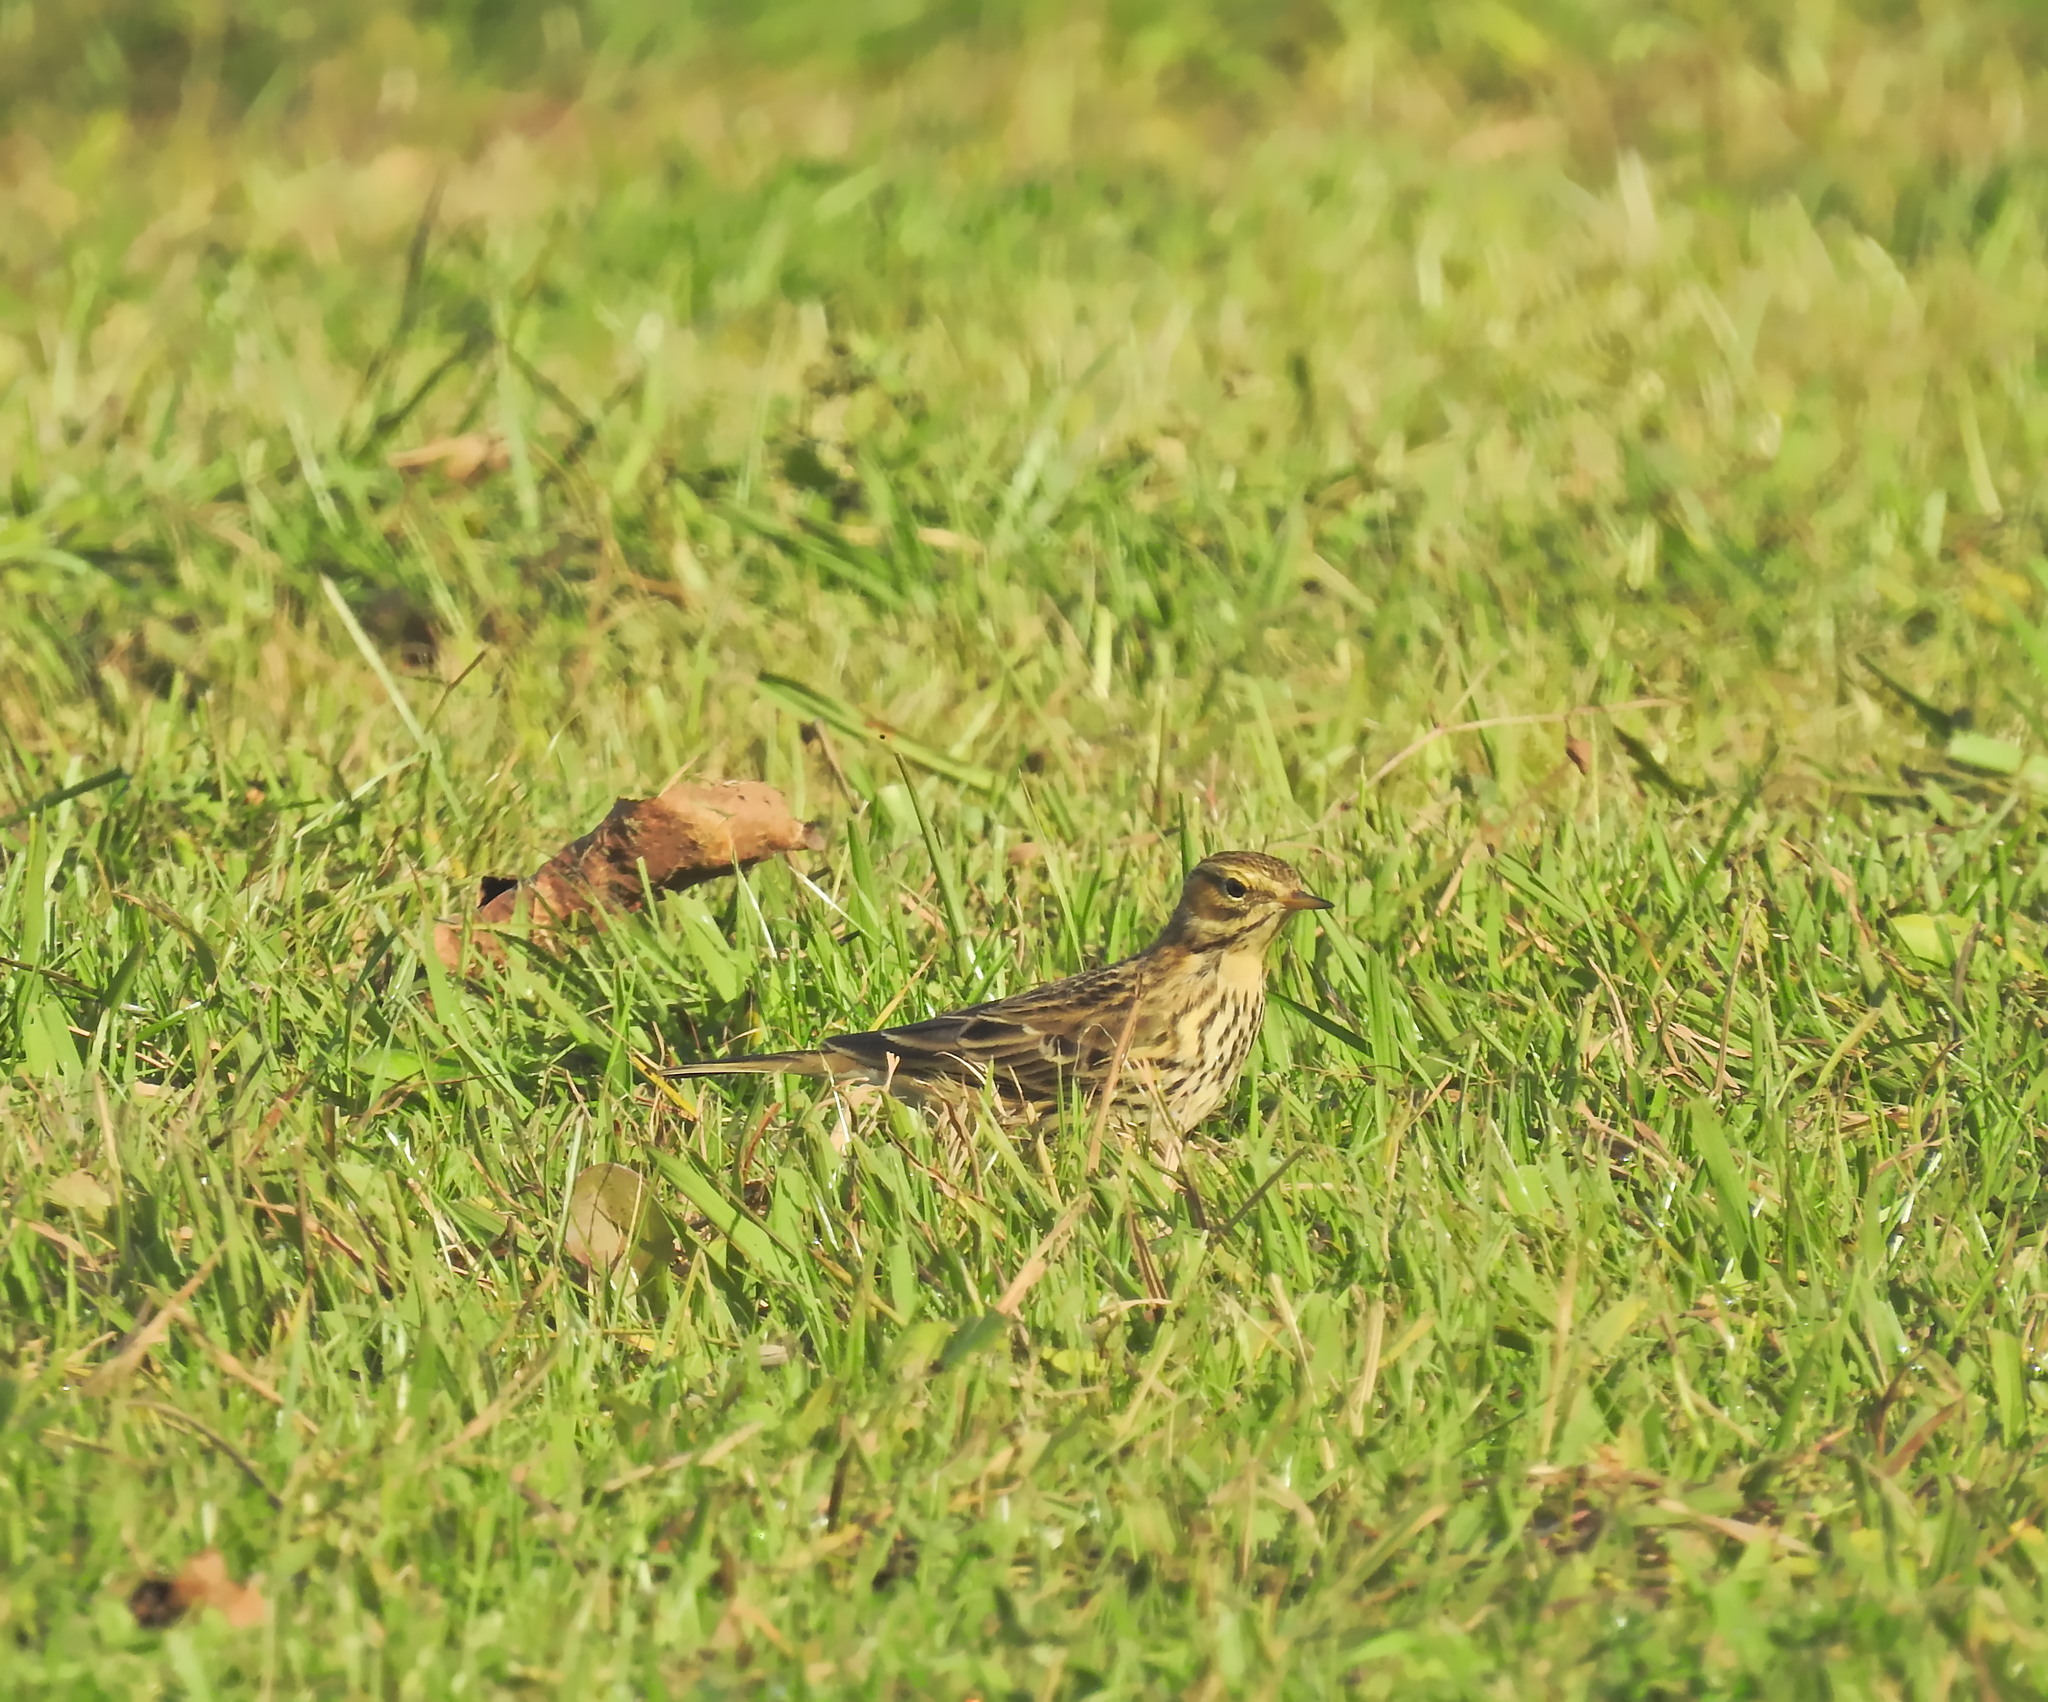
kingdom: Animalia
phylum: Chordata
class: Aves
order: Passeriformes
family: Motacillidae
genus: Anthus
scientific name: Anthus pratensis
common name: Meadow pipit
